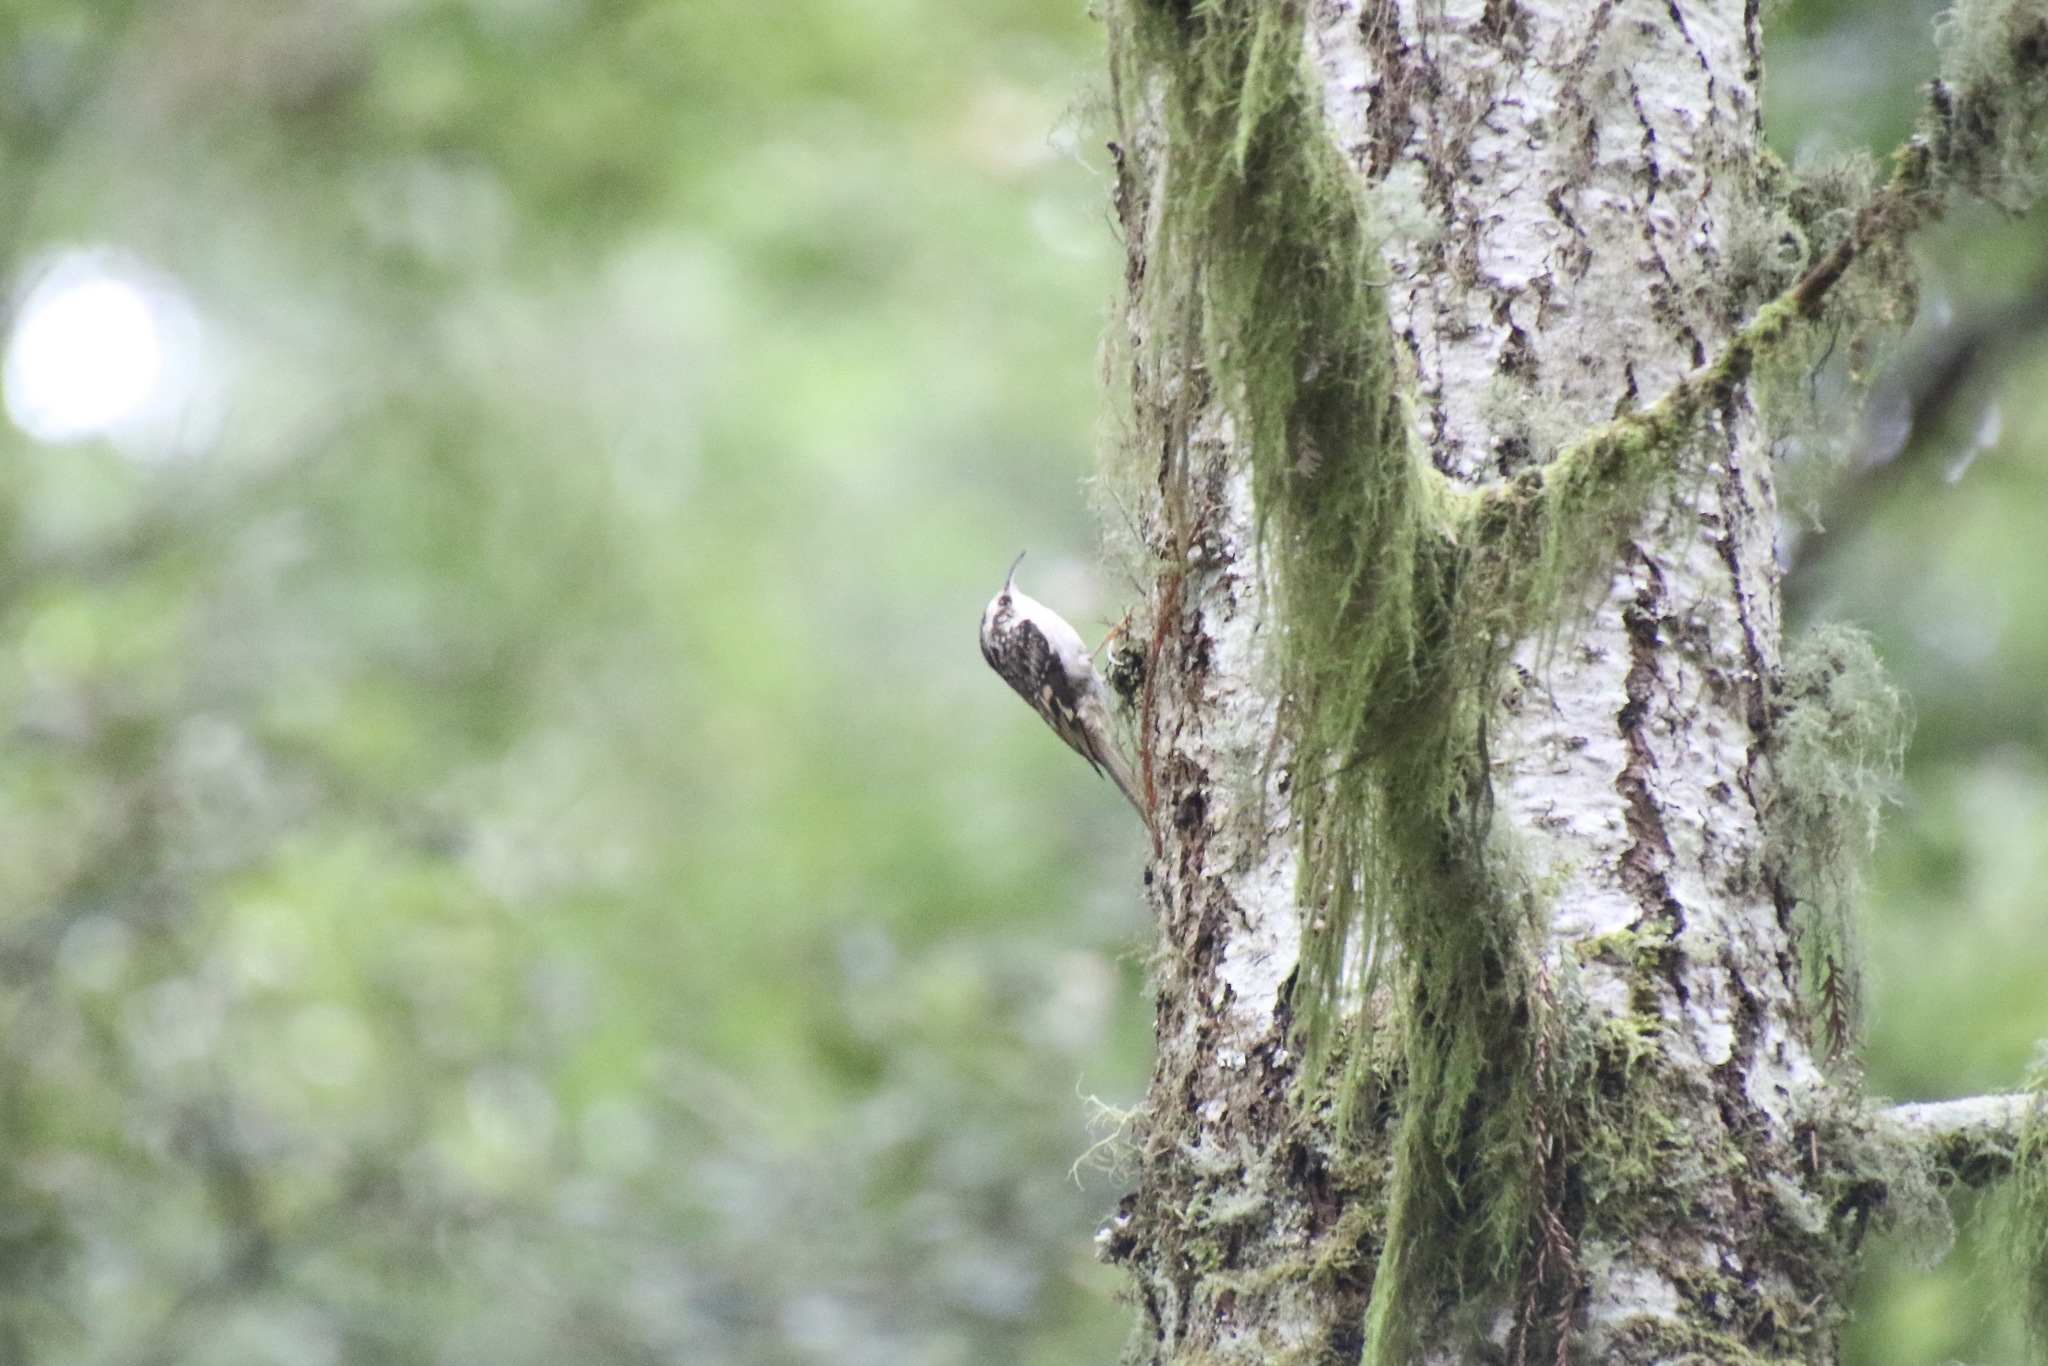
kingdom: Animalia
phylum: Chordata
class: Aves
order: Passeriformes
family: Certhiidae
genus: Certhia
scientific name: Certhia americana
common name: Brown creeper
